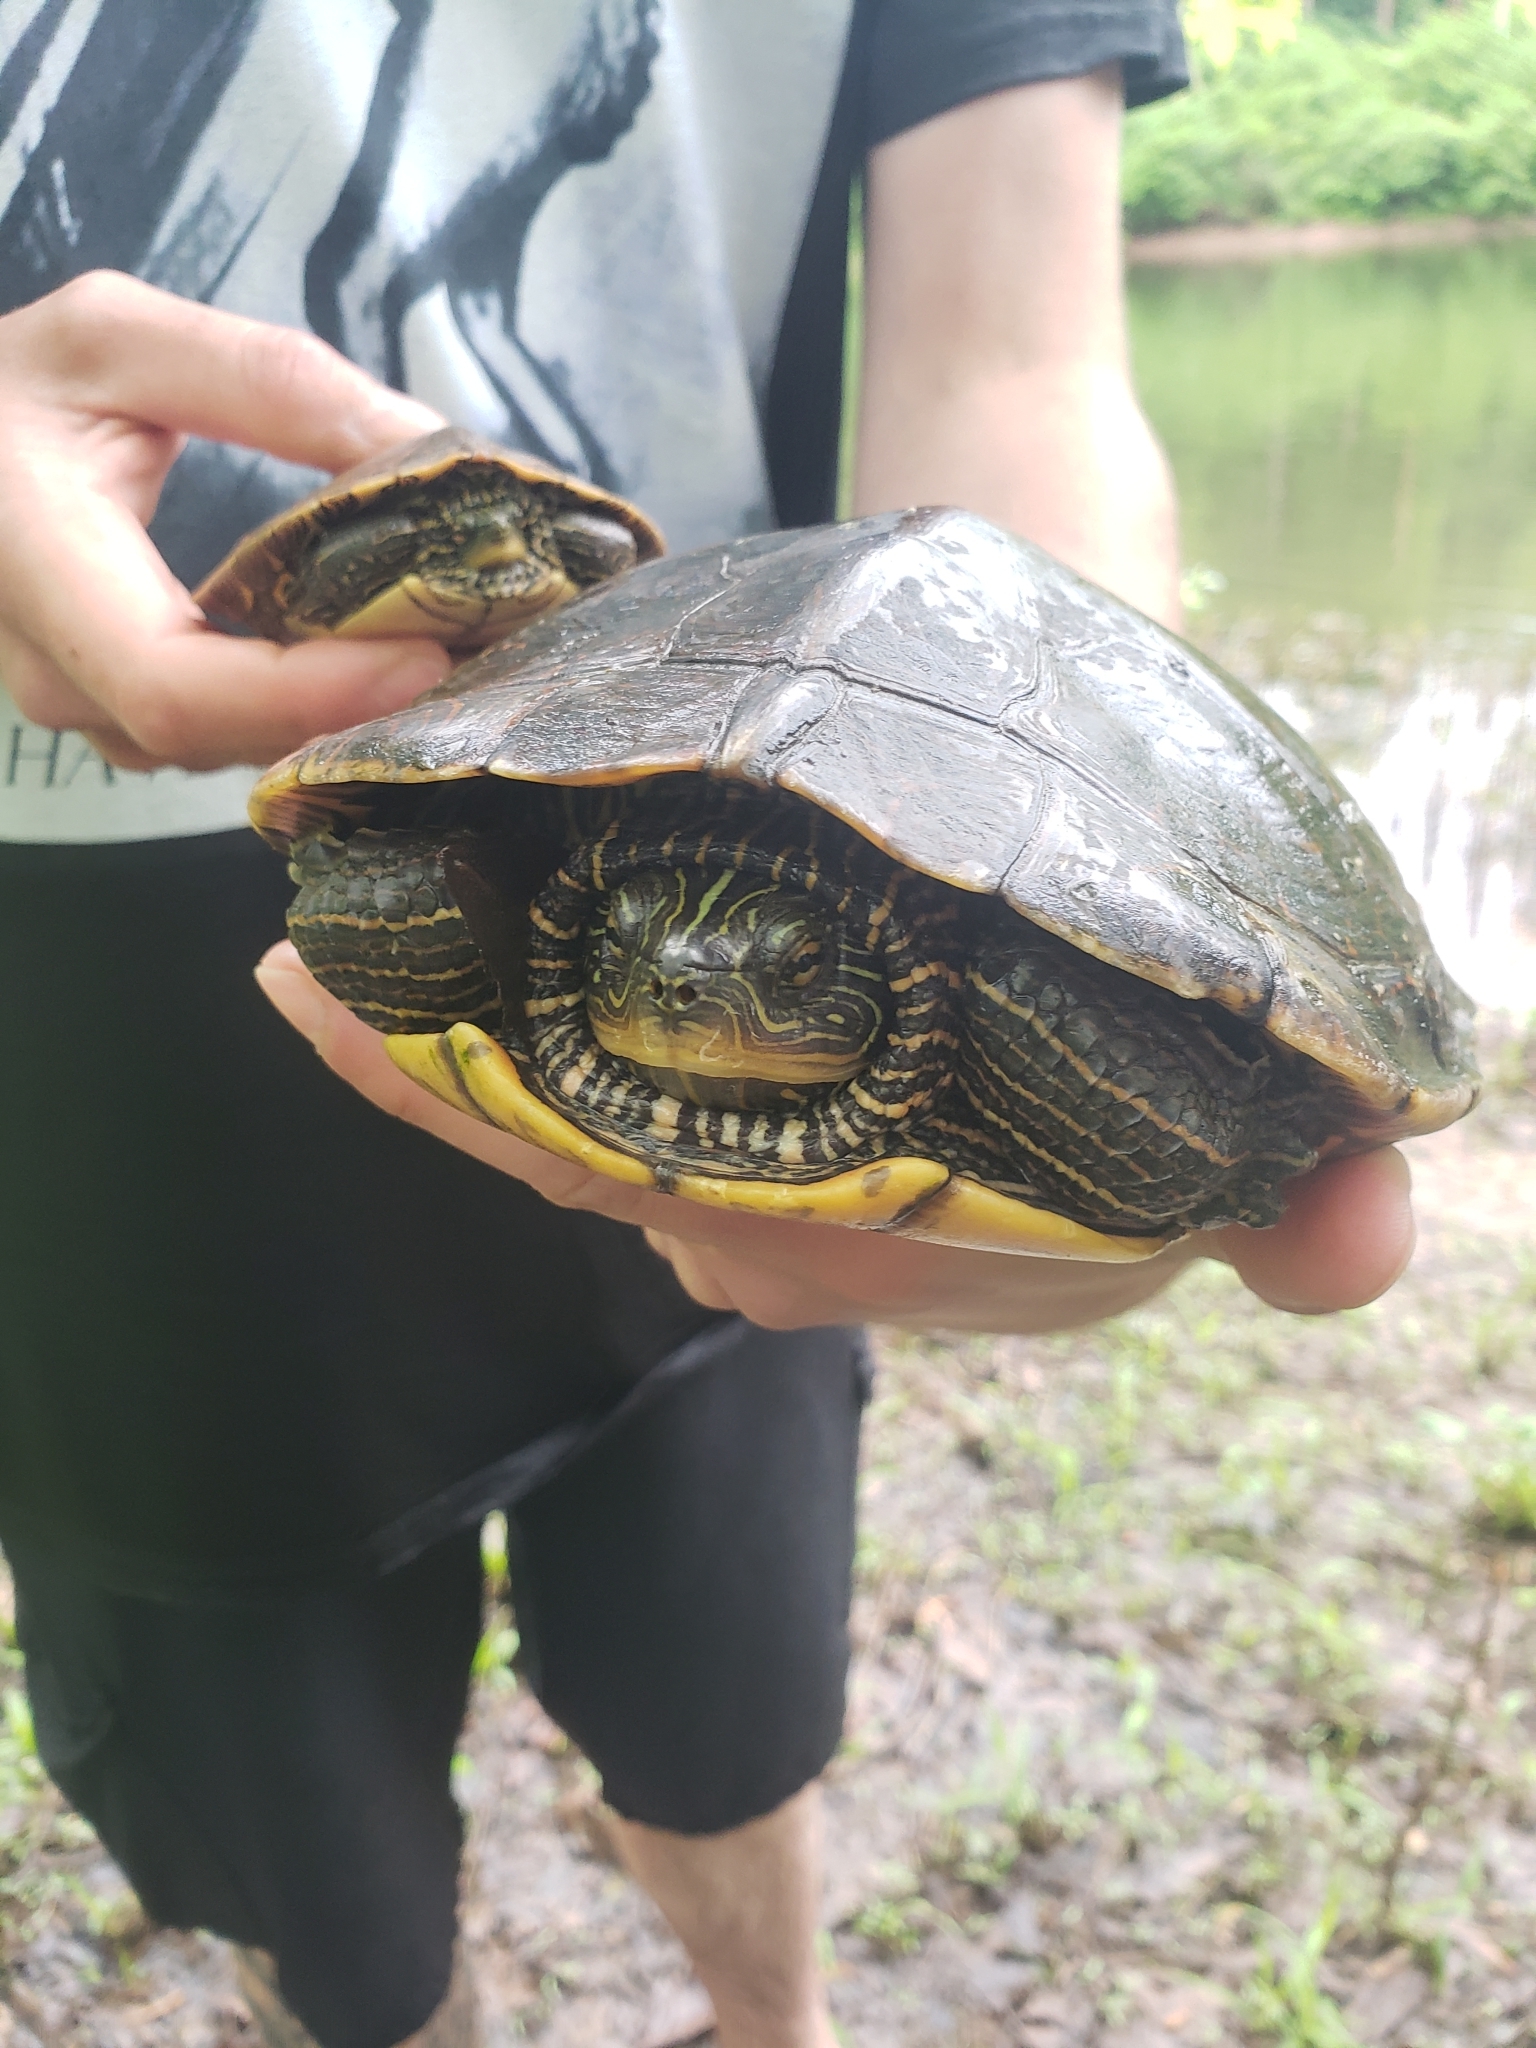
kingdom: Animalia
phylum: Chordata
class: Testudines
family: Emydidae
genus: Graptemys
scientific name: Graptemys geographica
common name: Common map turtle
